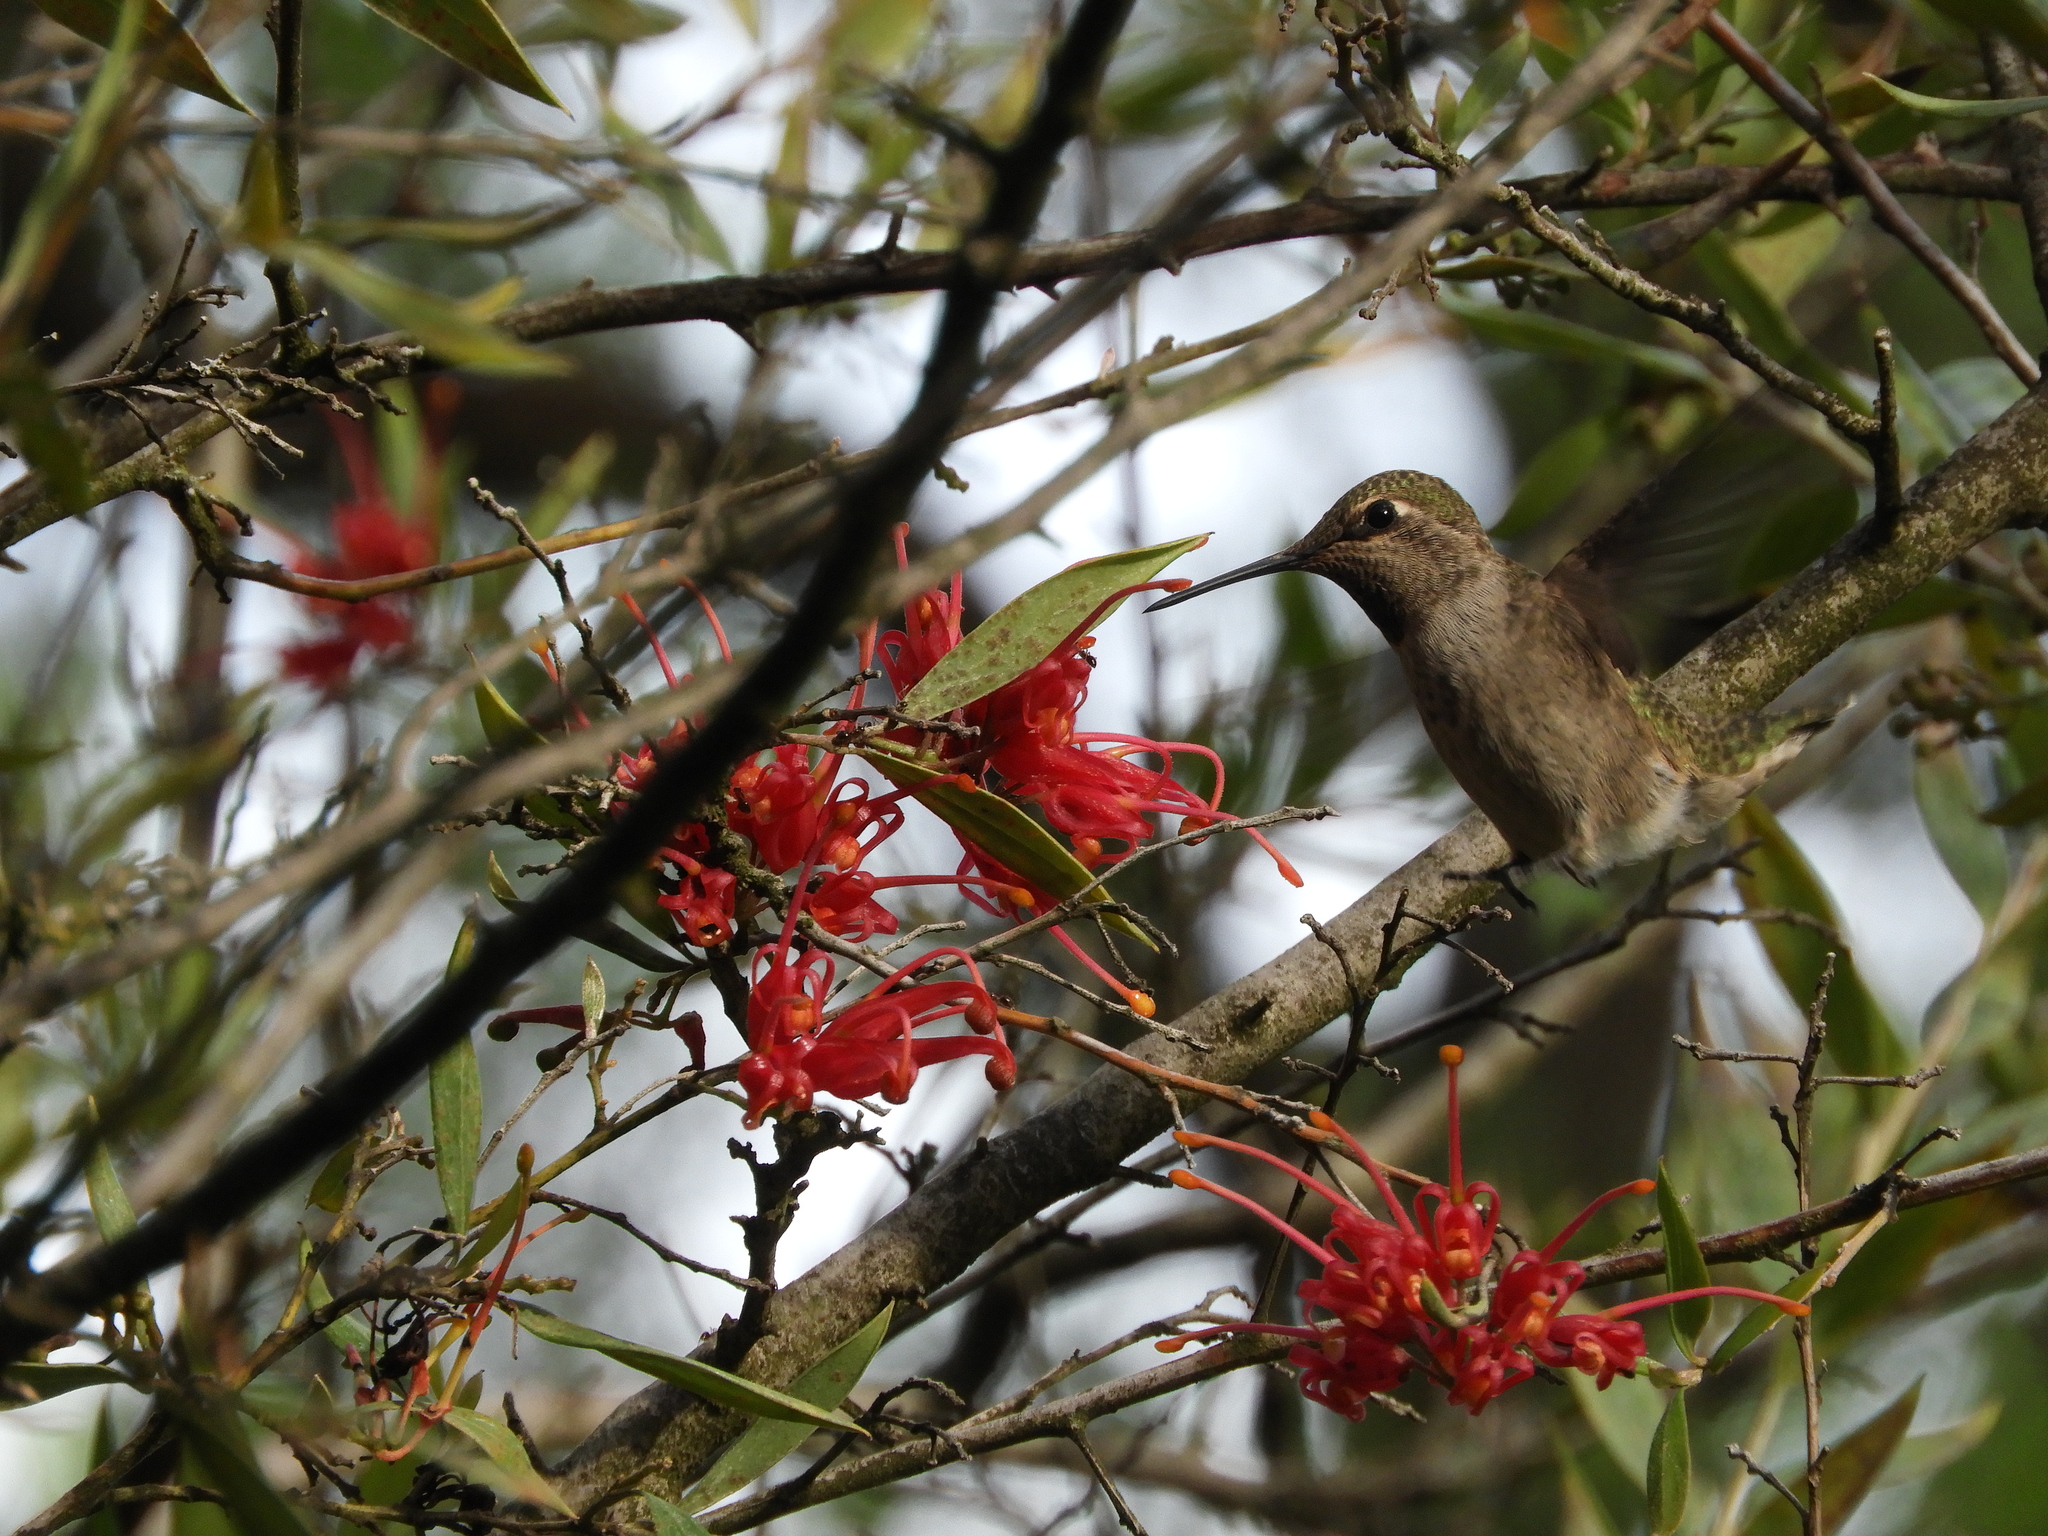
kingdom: Animalia
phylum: Chordata
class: Aves
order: Apodiformes
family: Trochilidae
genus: Calypte
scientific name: Calypte anna
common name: Anna's hummingbird
